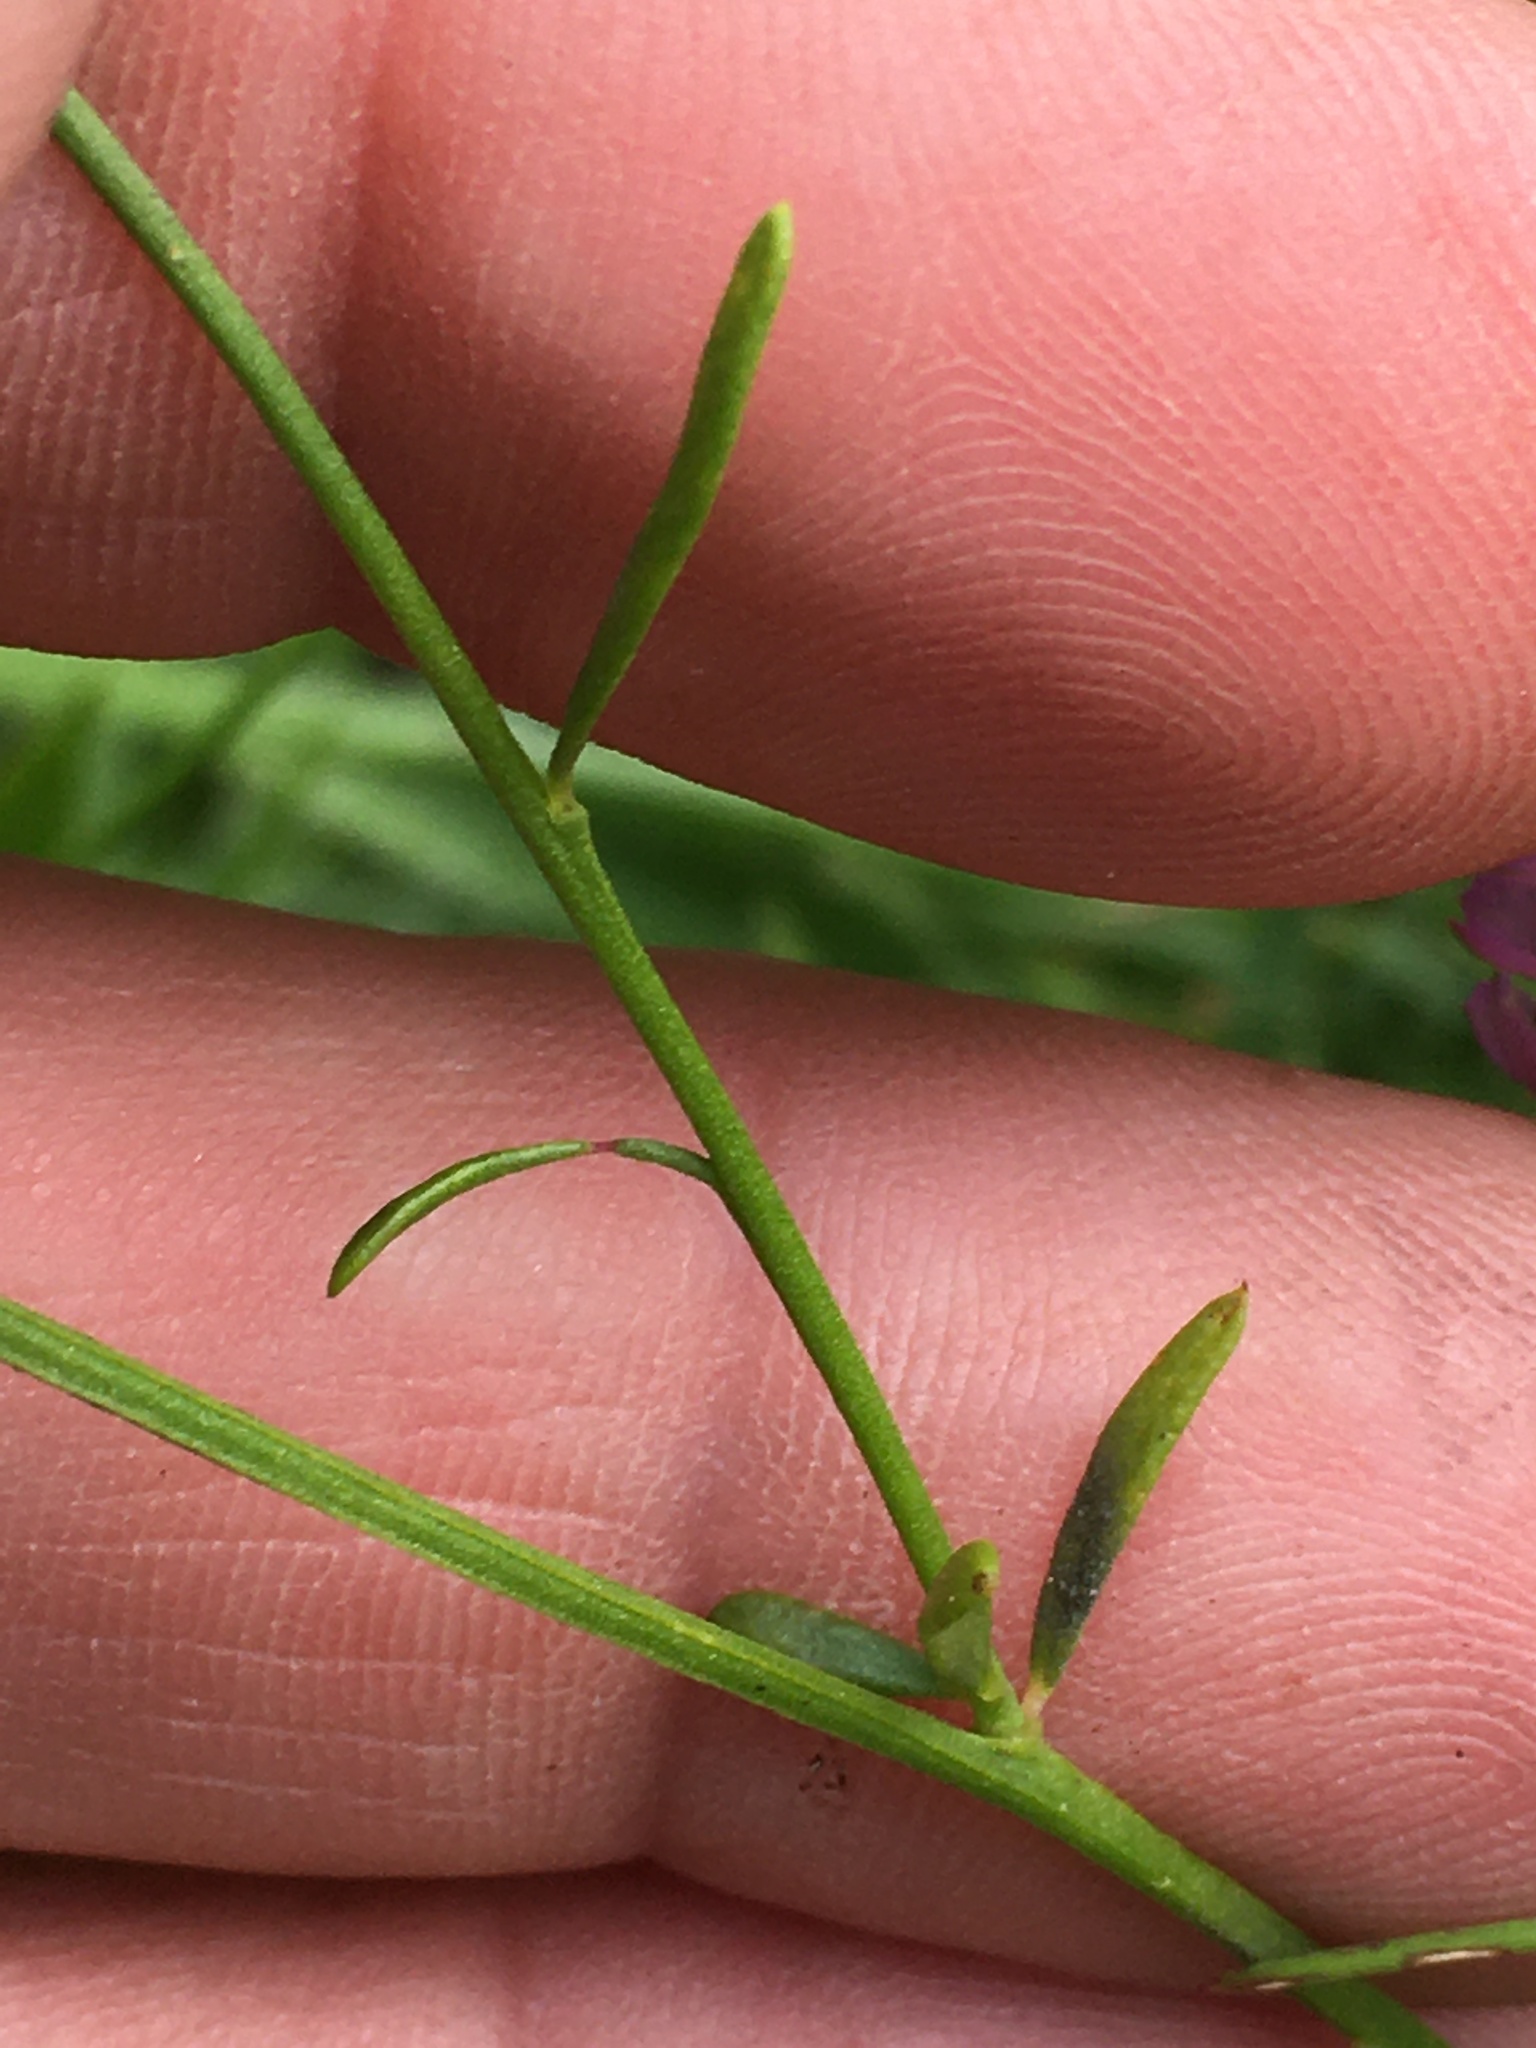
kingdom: Plantae
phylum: Tracheophyta
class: Magnoliopsida
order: Fabales
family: Polygalaceae
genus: Polygala
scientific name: Polygala curtissii
